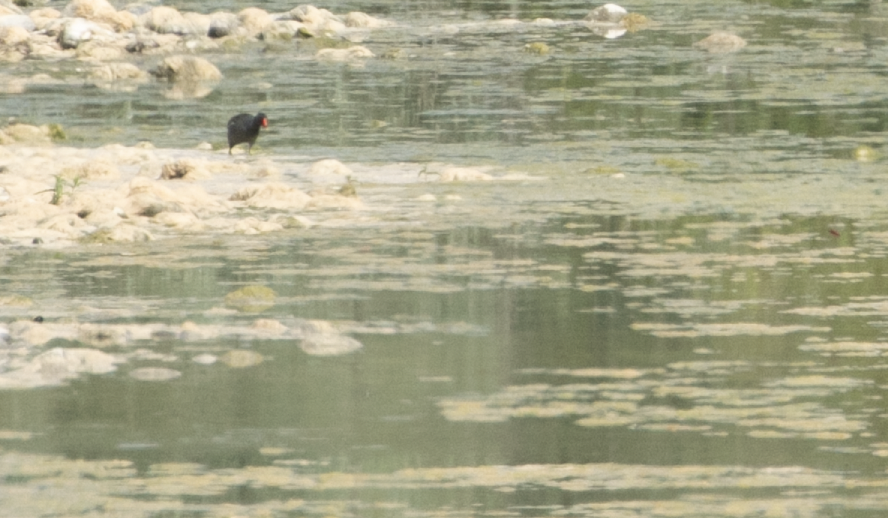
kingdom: Animalia
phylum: Chordata
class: Aves
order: Gruiformes
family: Rallidae
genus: Gallinula
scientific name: Gallinula chloropus
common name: Common moorhen
